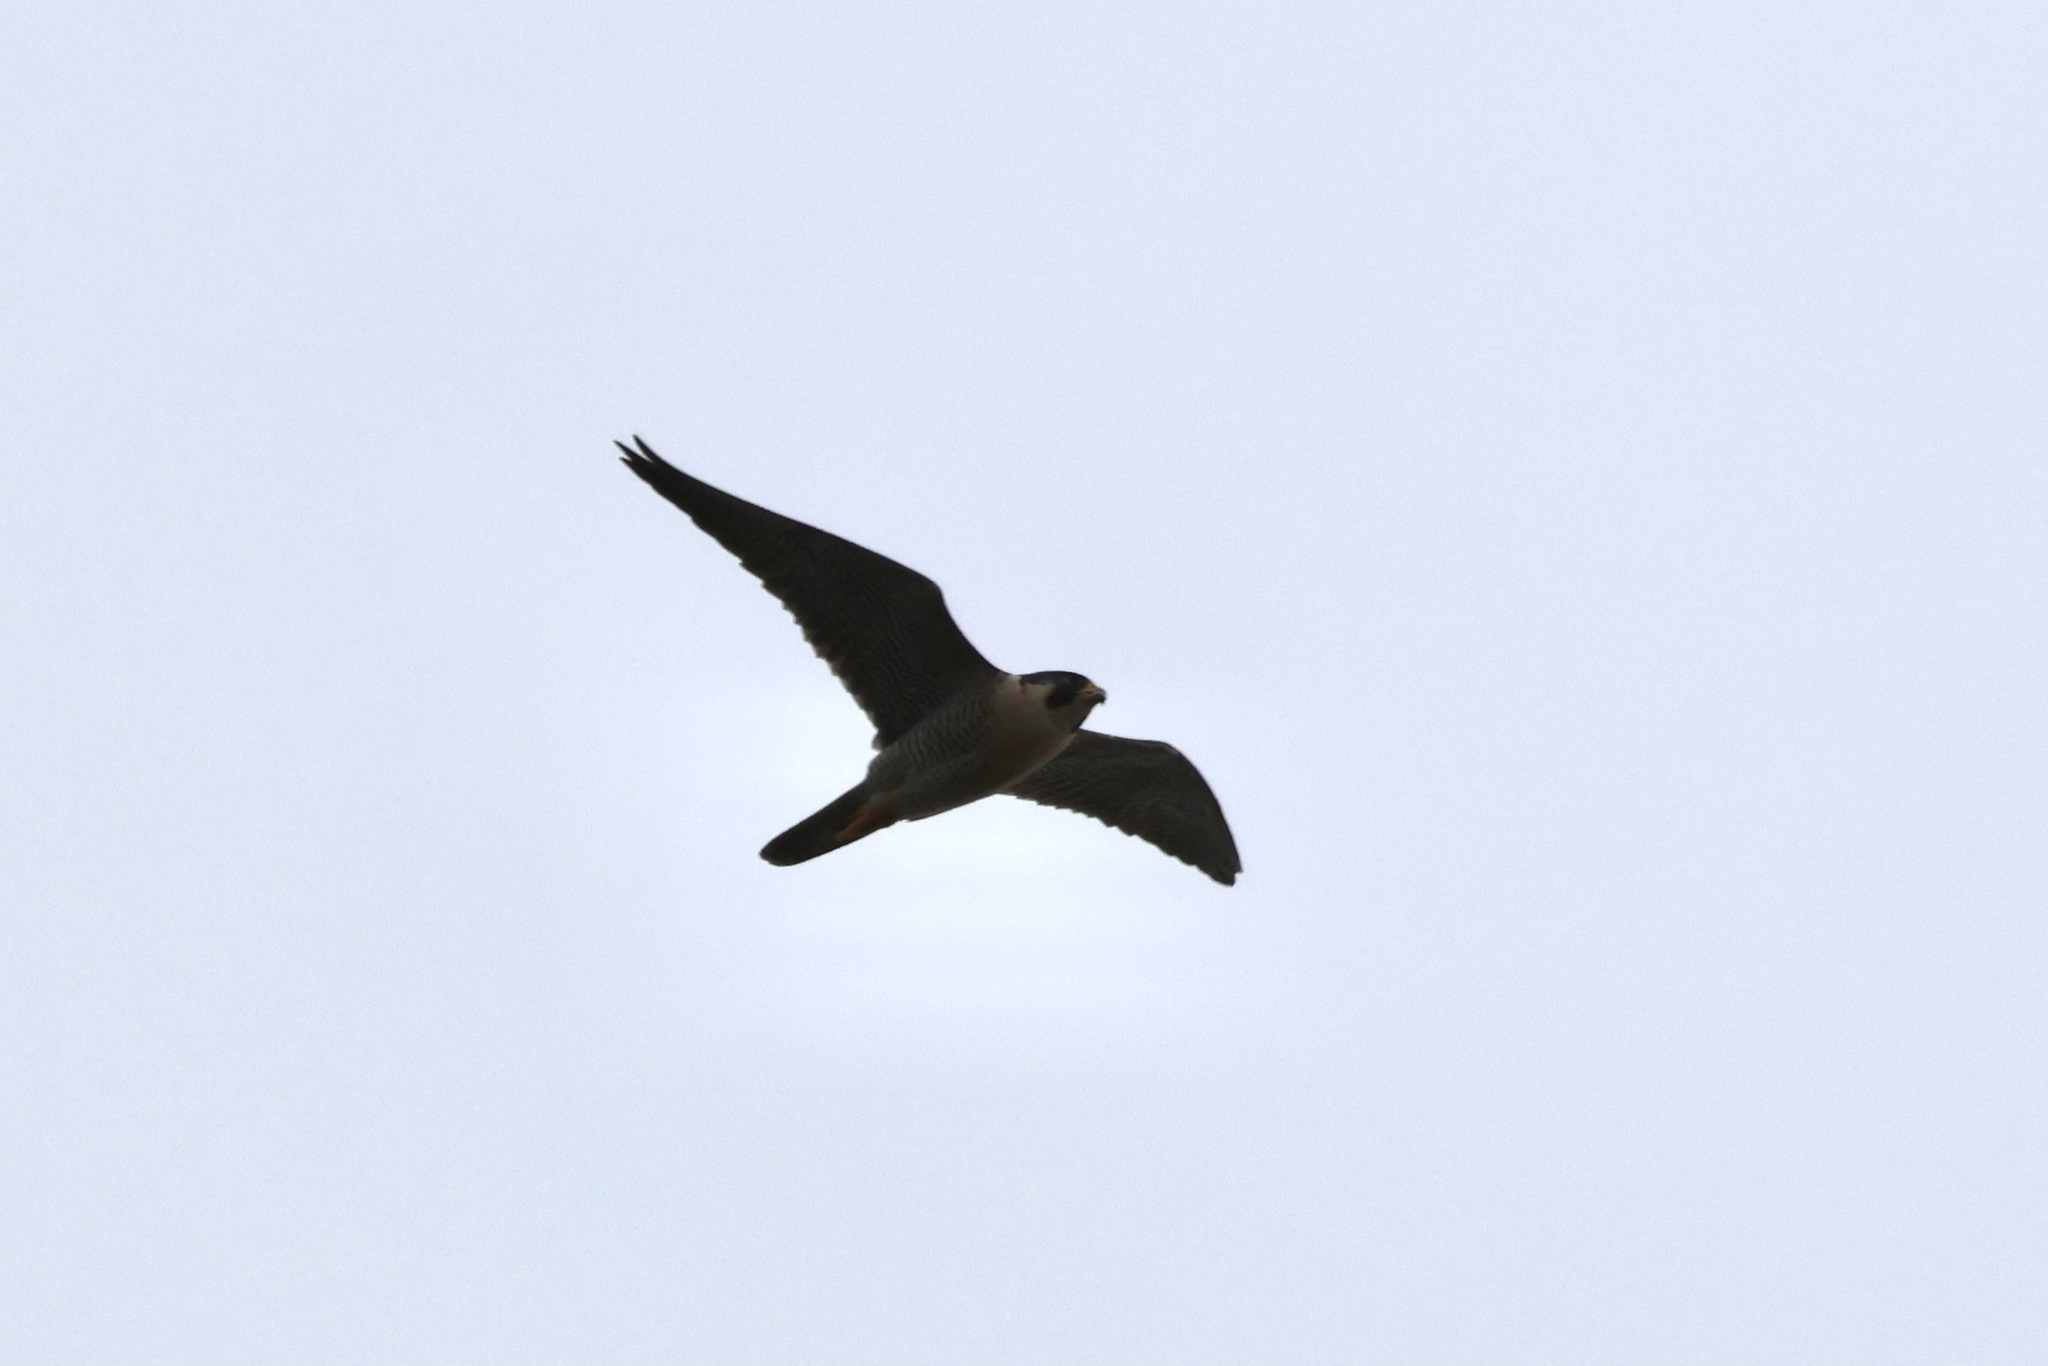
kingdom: Animalia
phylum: Chordata
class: Aves
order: Falconiformes
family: Falconidae
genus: Falco
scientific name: Falco peregrinus
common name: Peregrine falcon
